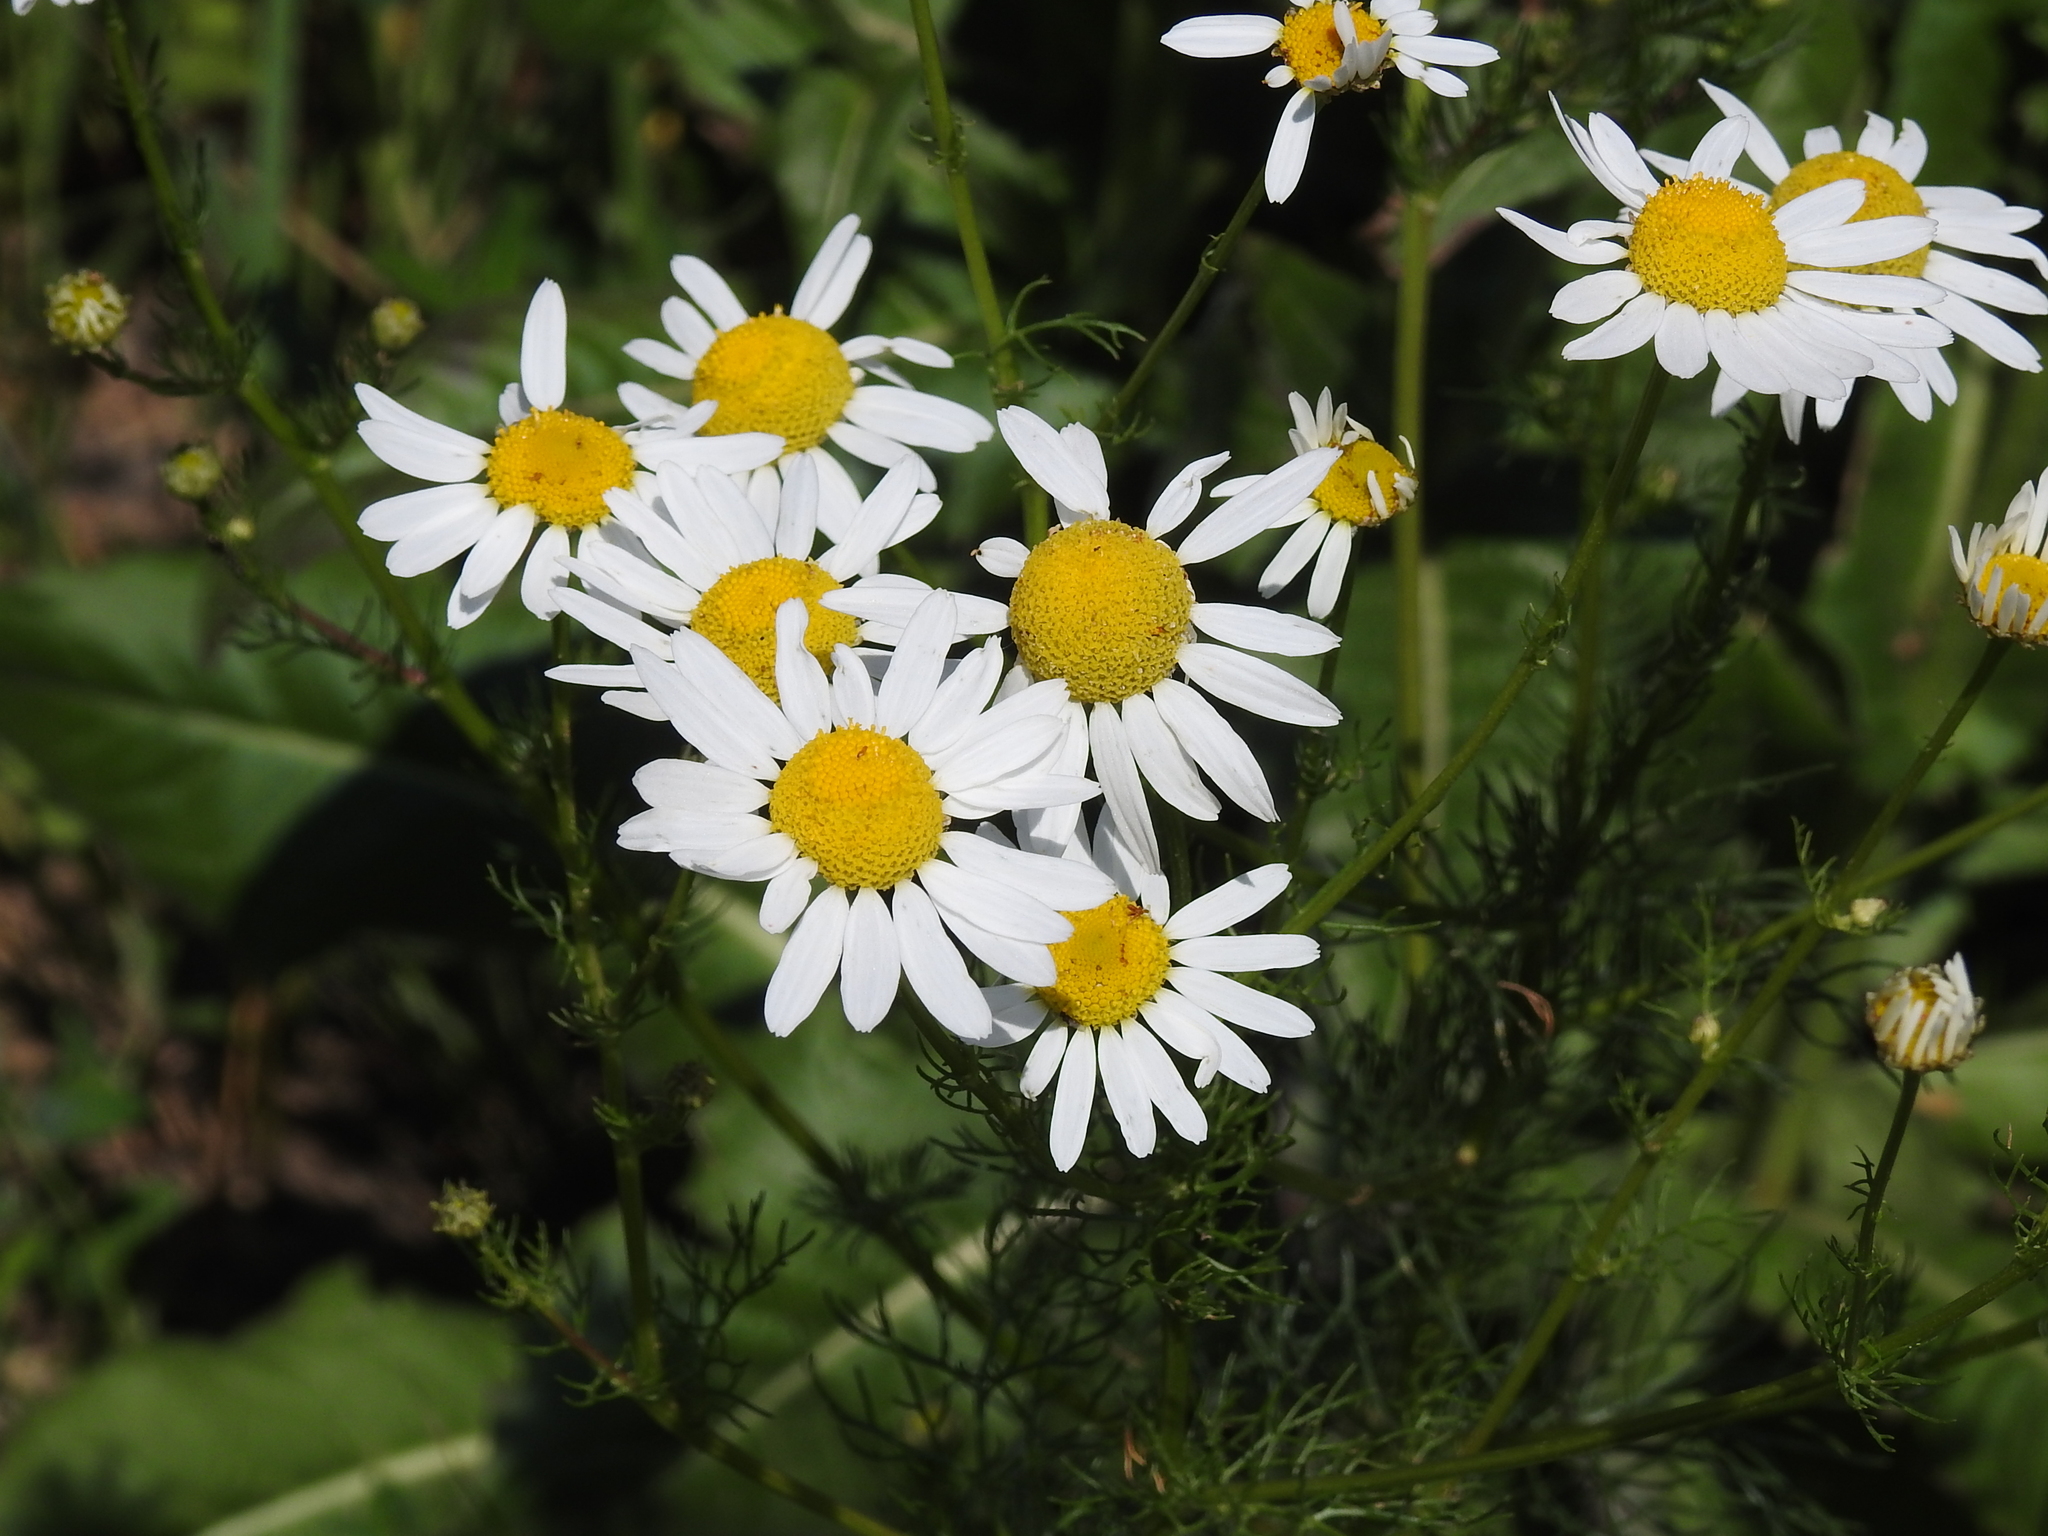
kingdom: Plantae
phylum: Tracheophyta
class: Magnoliopsida
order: Asterales
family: Asteraceae
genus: Tripleurospermum
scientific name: Tripleurospermum inodorum
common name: Scentless mayweed
